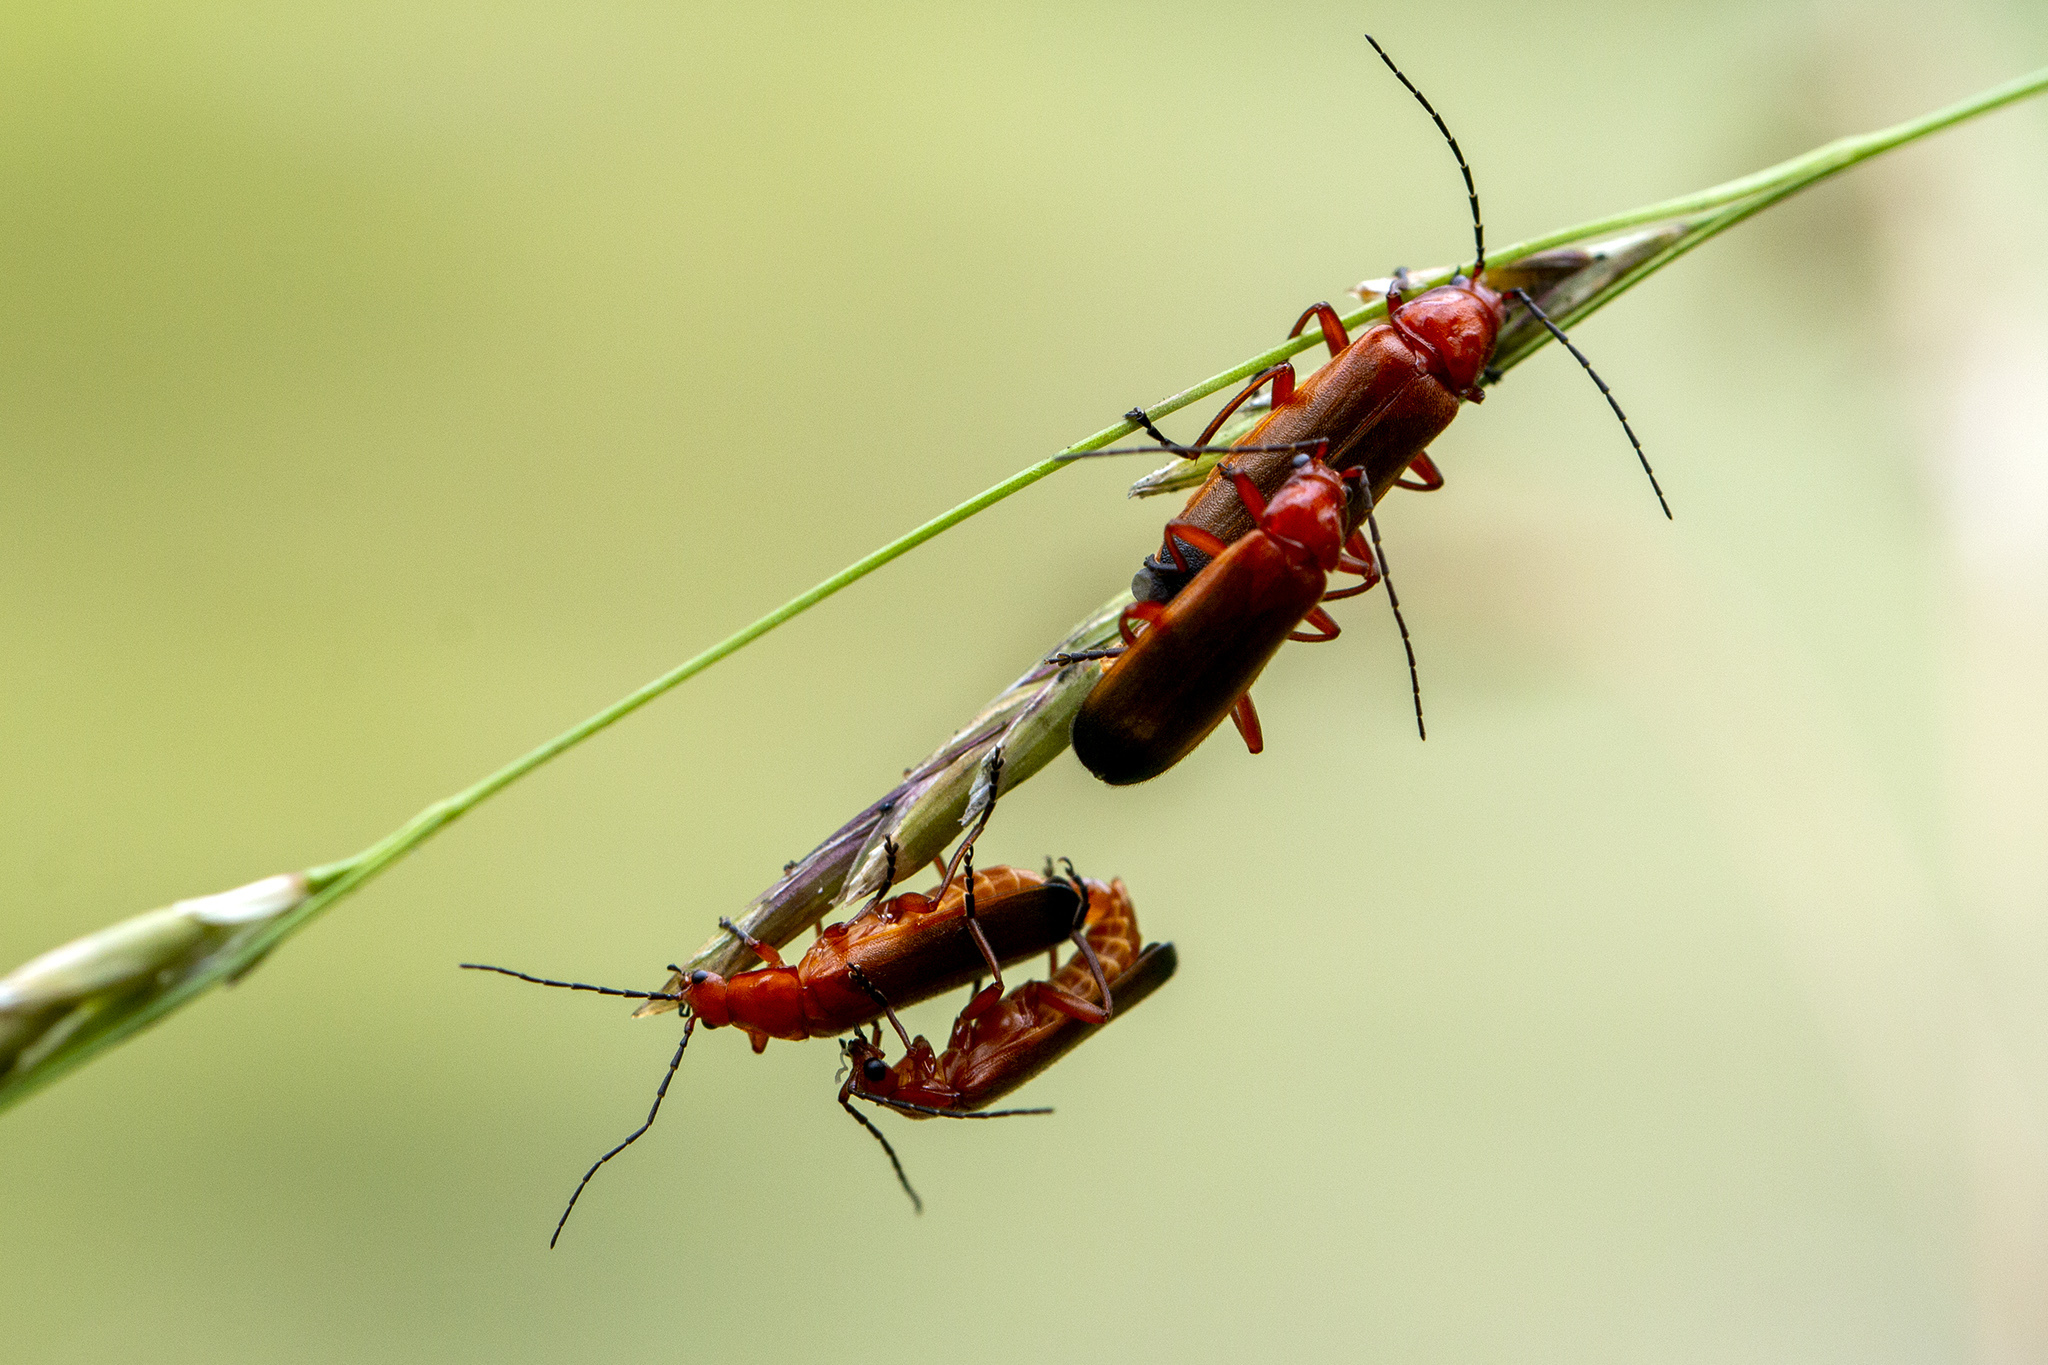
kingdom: Animalia
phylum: Arthropoda
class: Insecta
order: Coleoptera
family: Cantharidae
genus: Rhagonycha
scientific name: Rhagonycha fulva
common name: Common red soldier beetle
